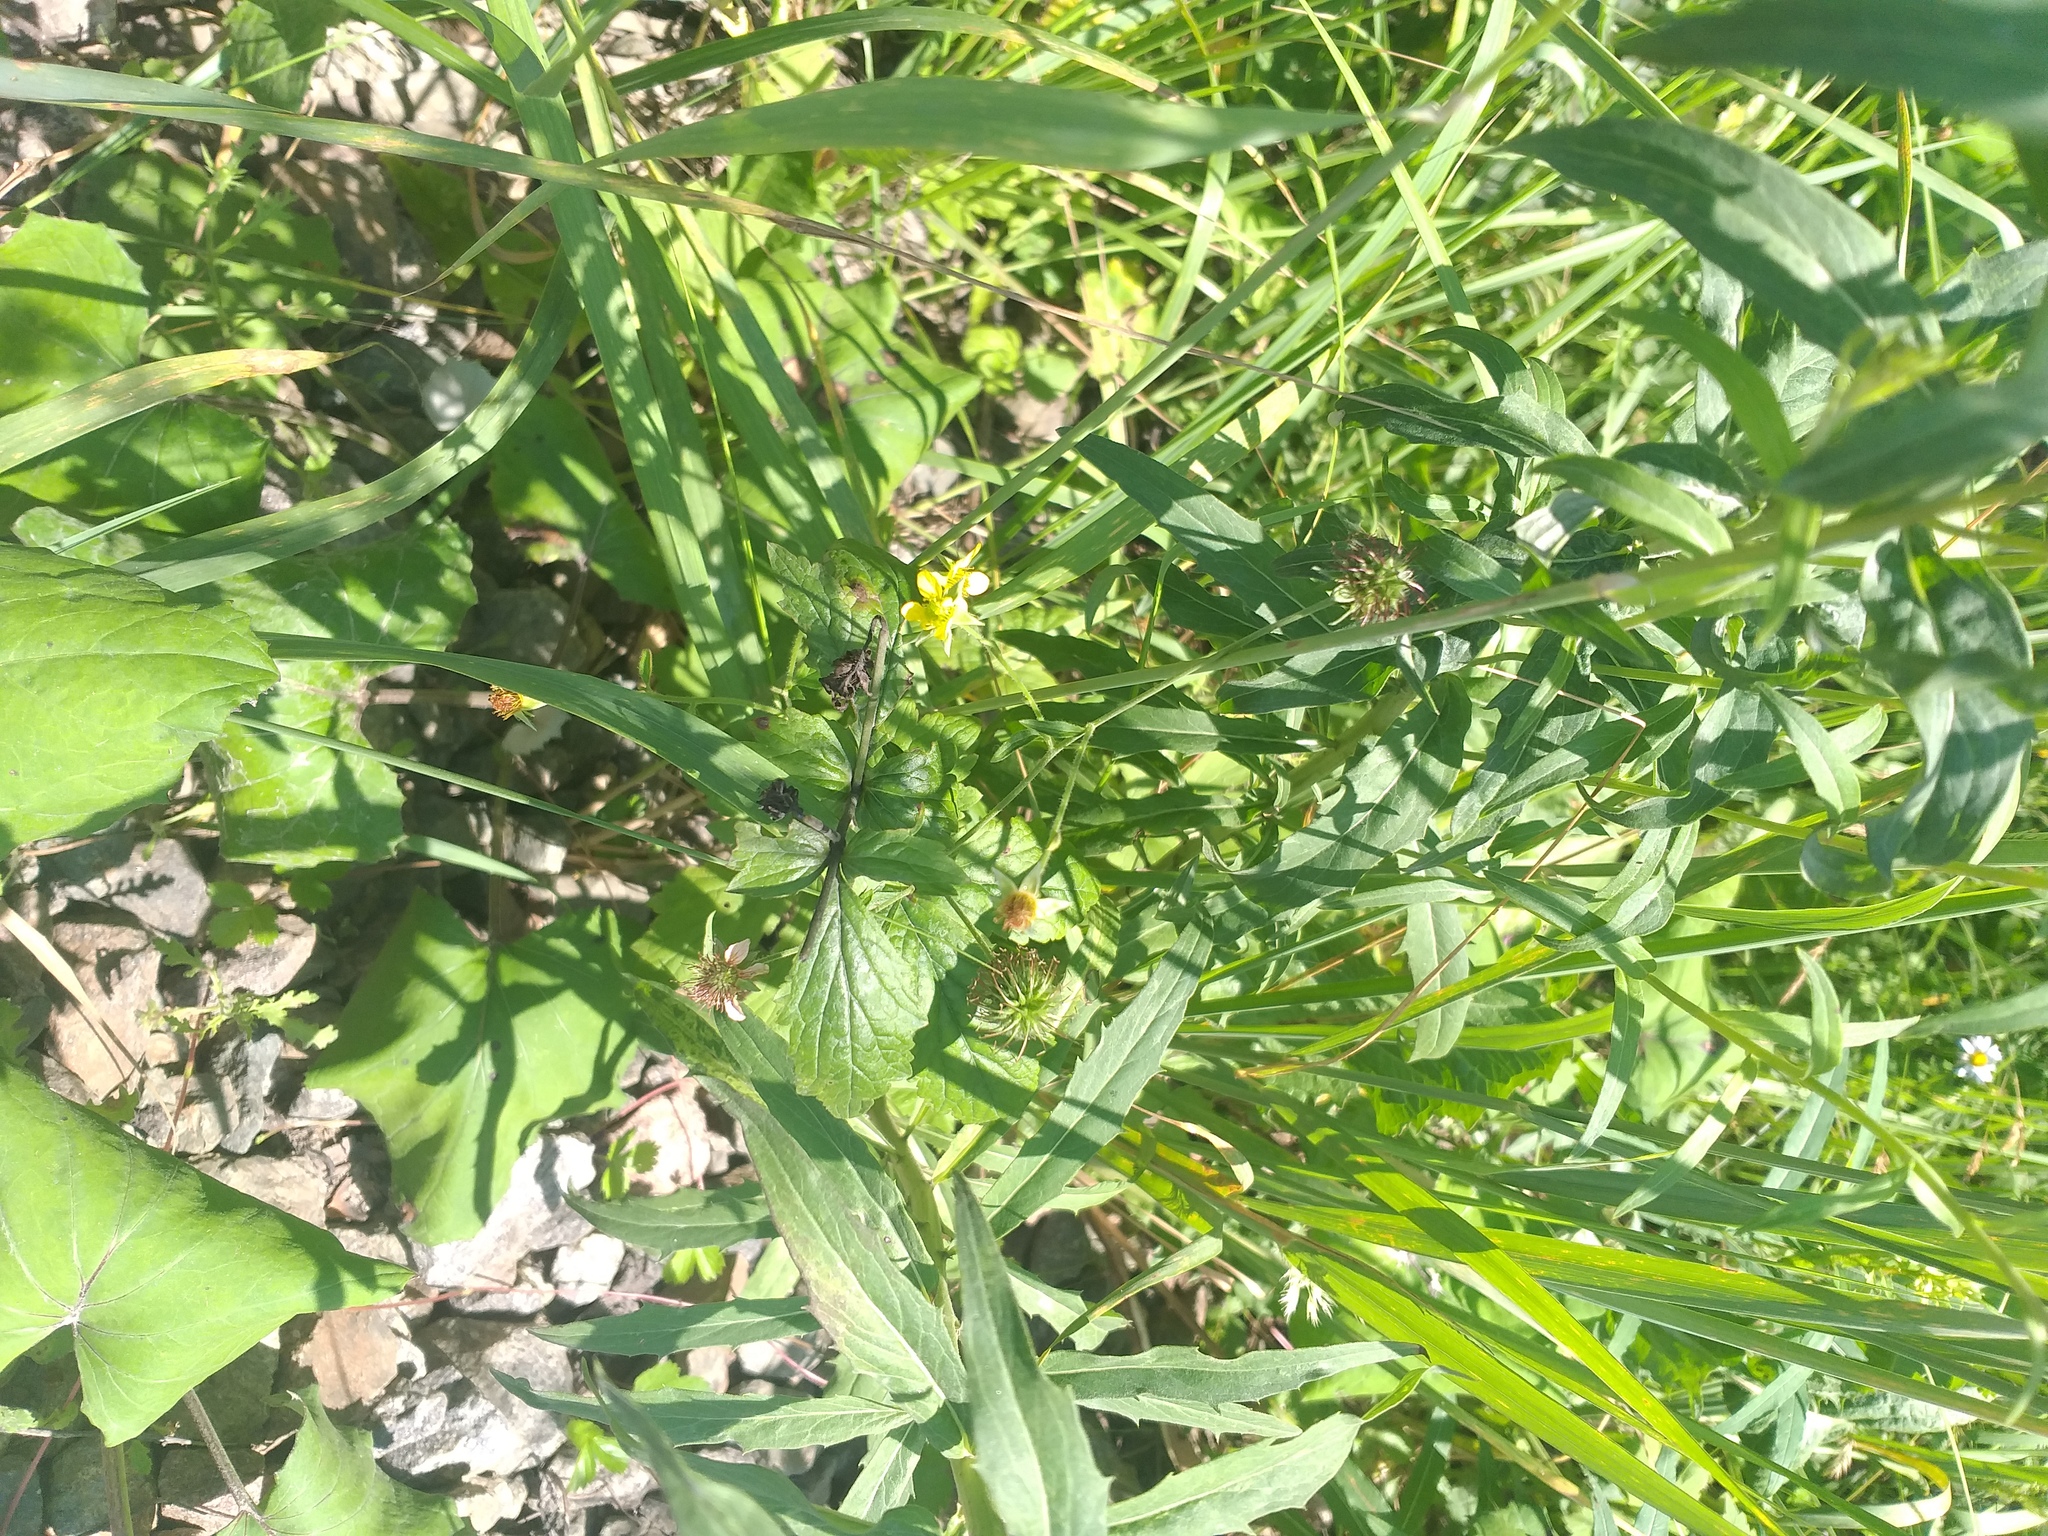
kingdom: Plantae
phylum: Tracheophyta
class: Magnoliopsida
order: Rosales
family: Rosaceae
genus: Geum
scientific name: Geum urbanum
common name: Wood avens
